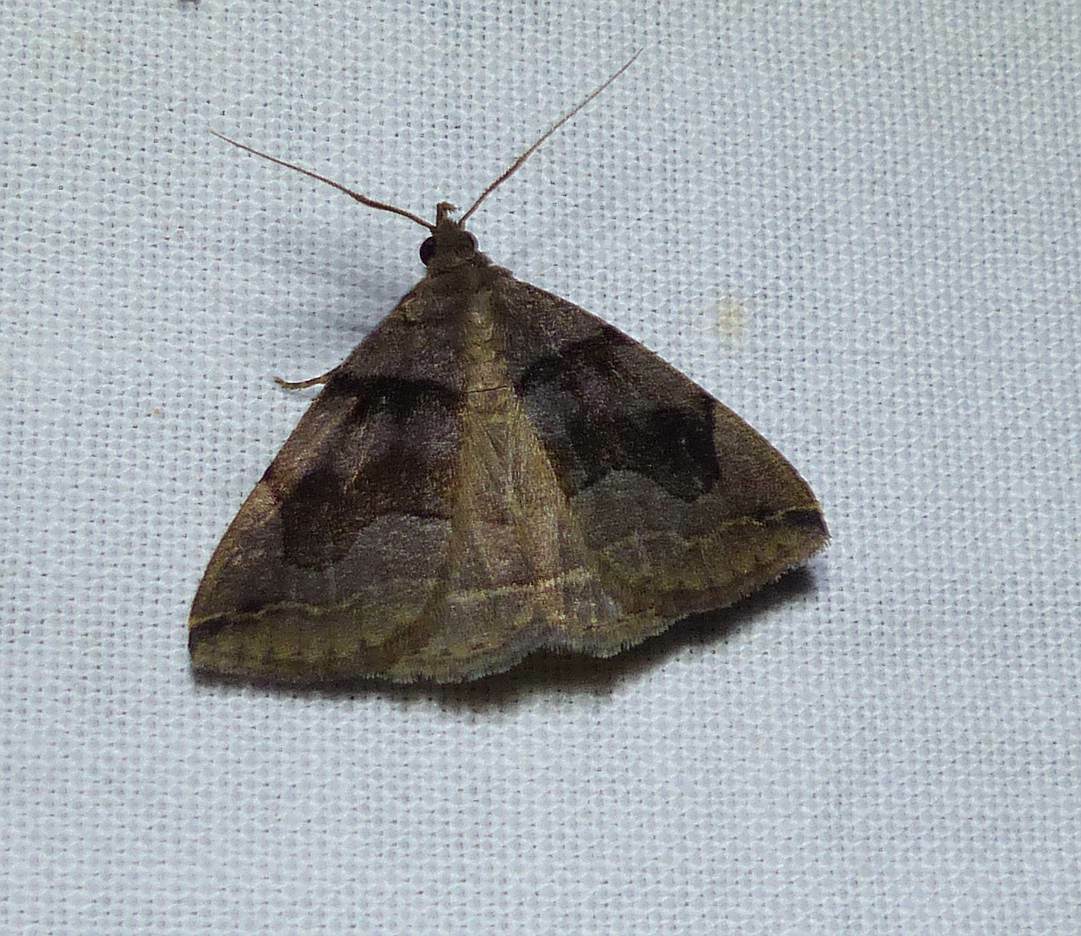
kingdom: Animalia
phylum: Arthropoda
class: Insecta
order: Lepidoptera
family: Erebidae
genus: Zanclognatha
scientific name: Zanclognatha laevigata
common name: Variable fan-foot
